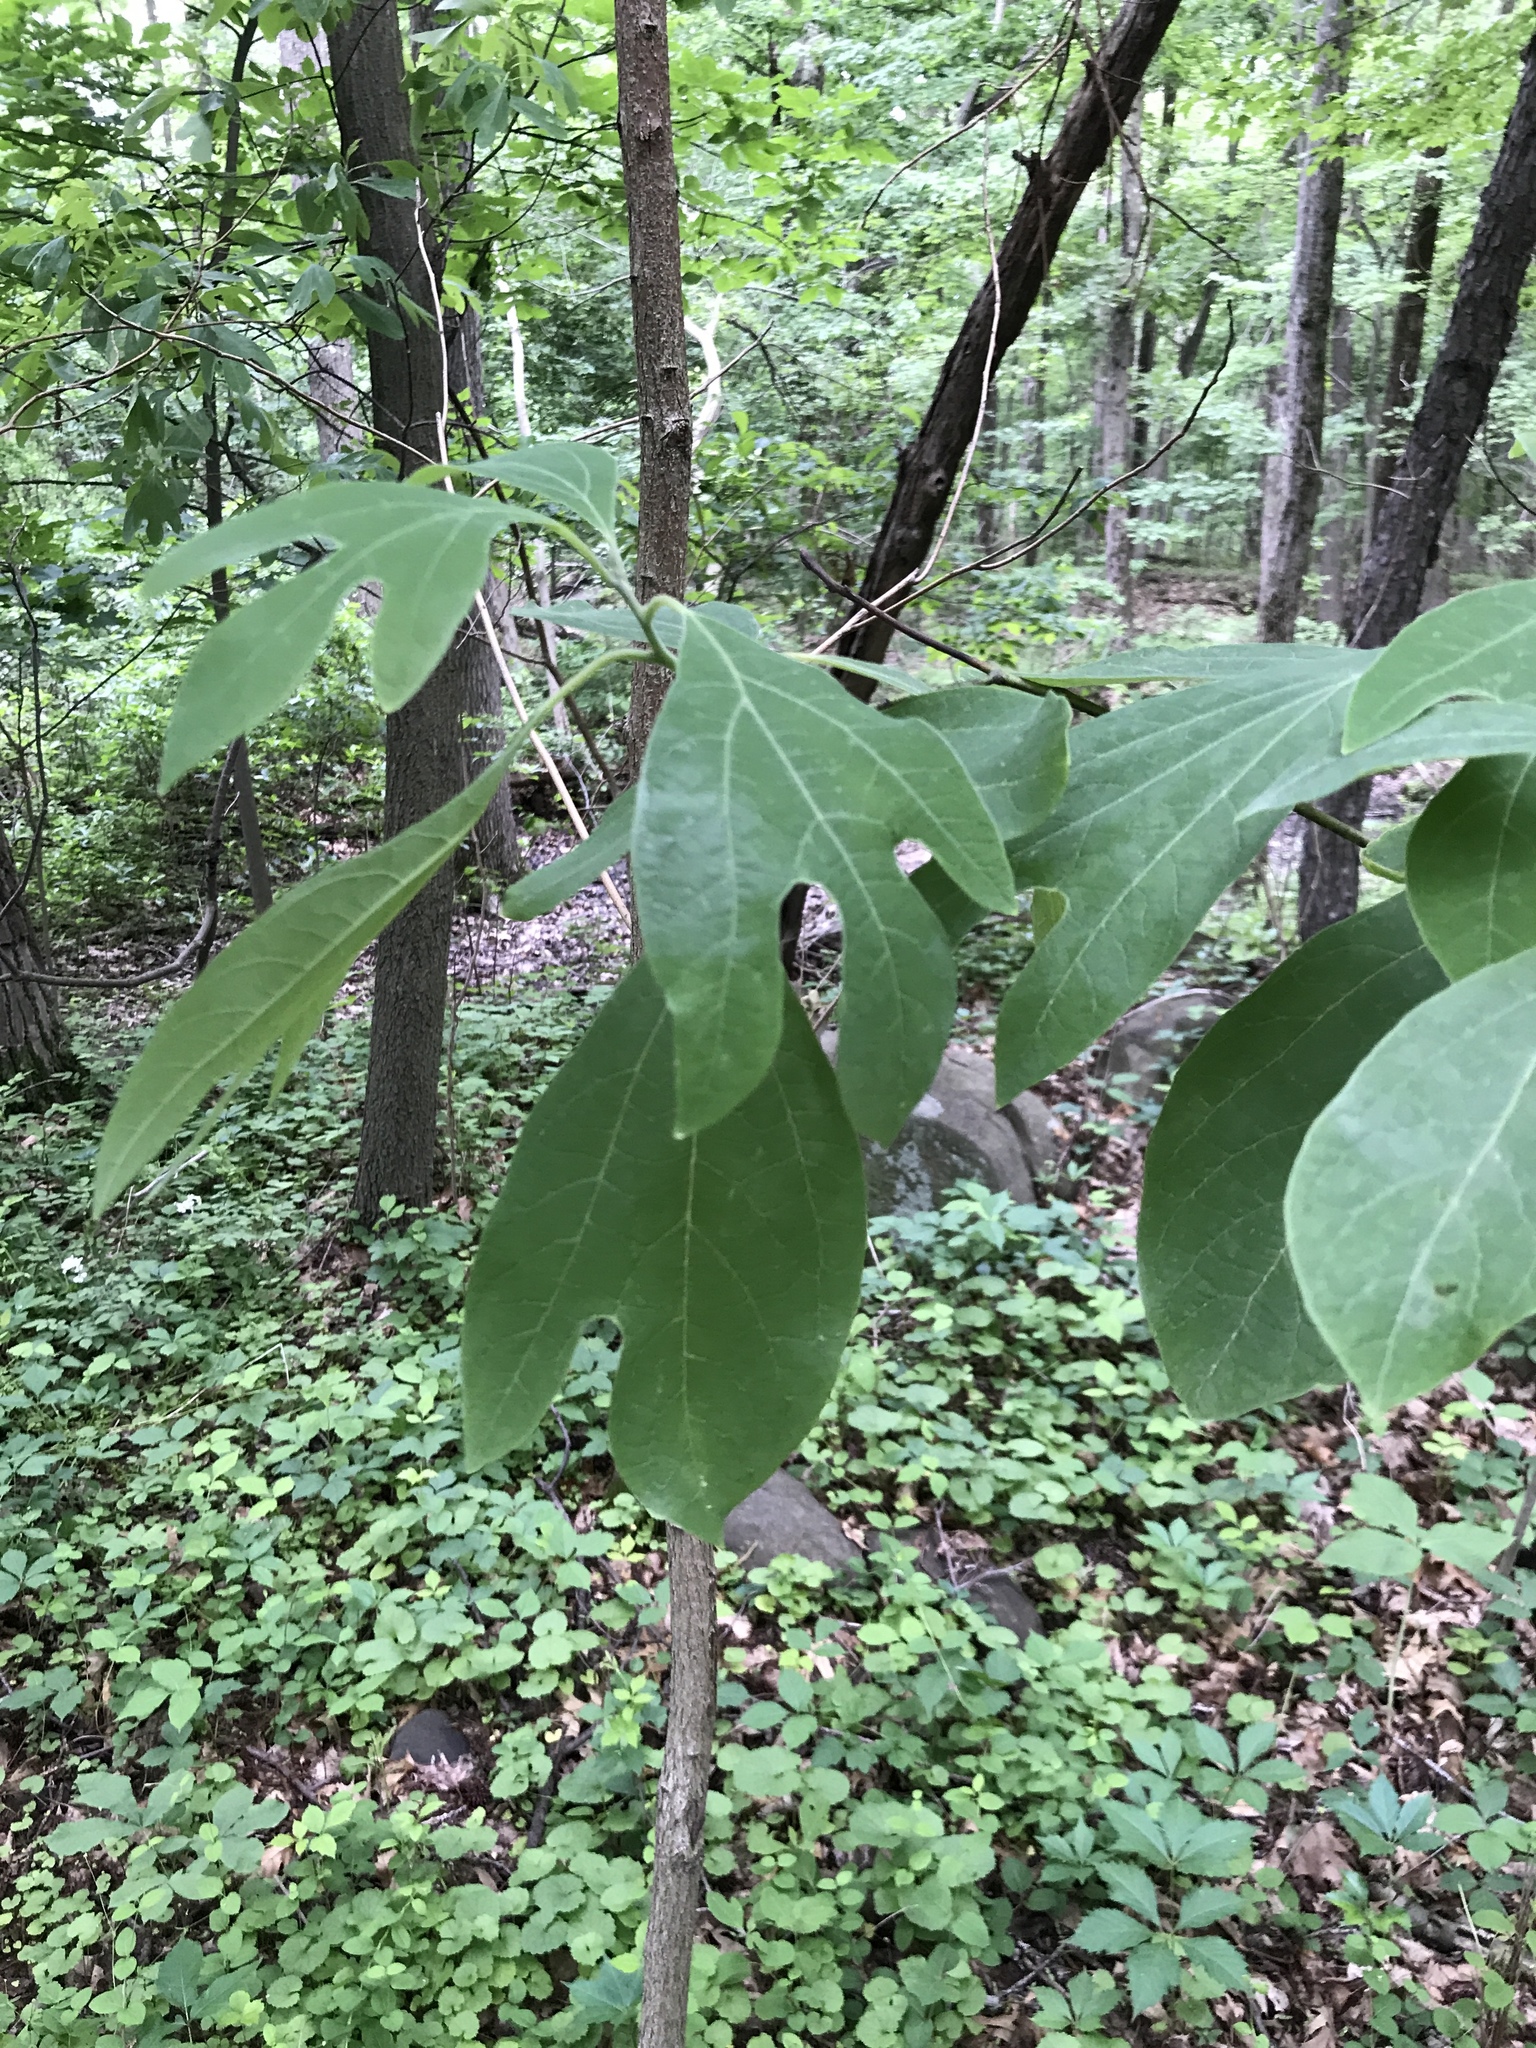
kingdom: Plantae
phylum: Tracheophyta
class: Magnoliopsida
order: Laurales
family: Lauraceae
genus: Sassafras
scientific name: Sassafras albidum
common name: Sassafras
